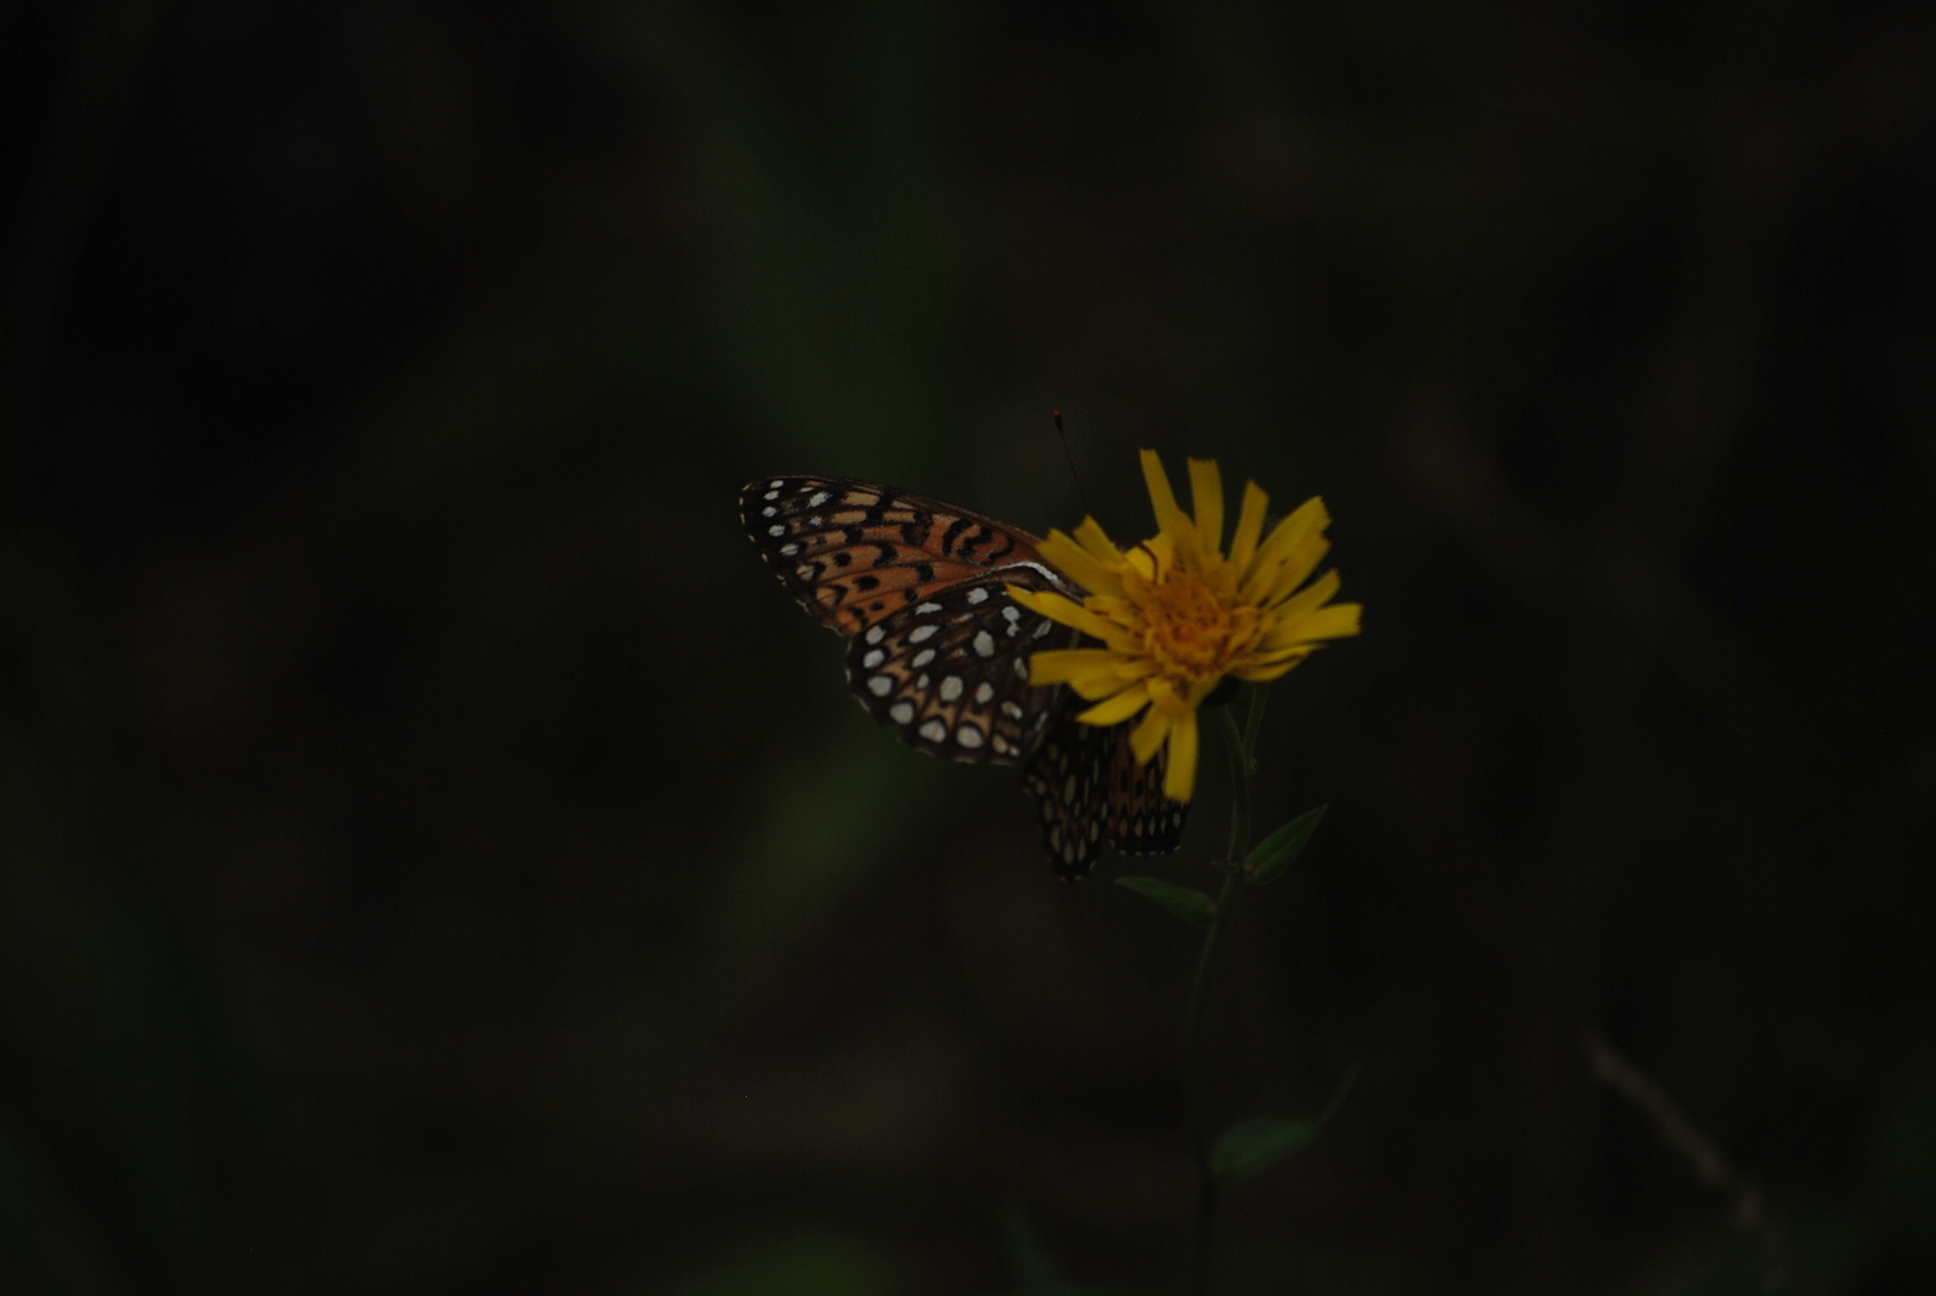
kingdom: Animalia
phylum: Arthropoda
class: Insecta
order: Lepidoptera
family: Nymphalidae
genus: Speyeria
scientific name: Speyeria atlantis
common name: Atlantis fritillary
